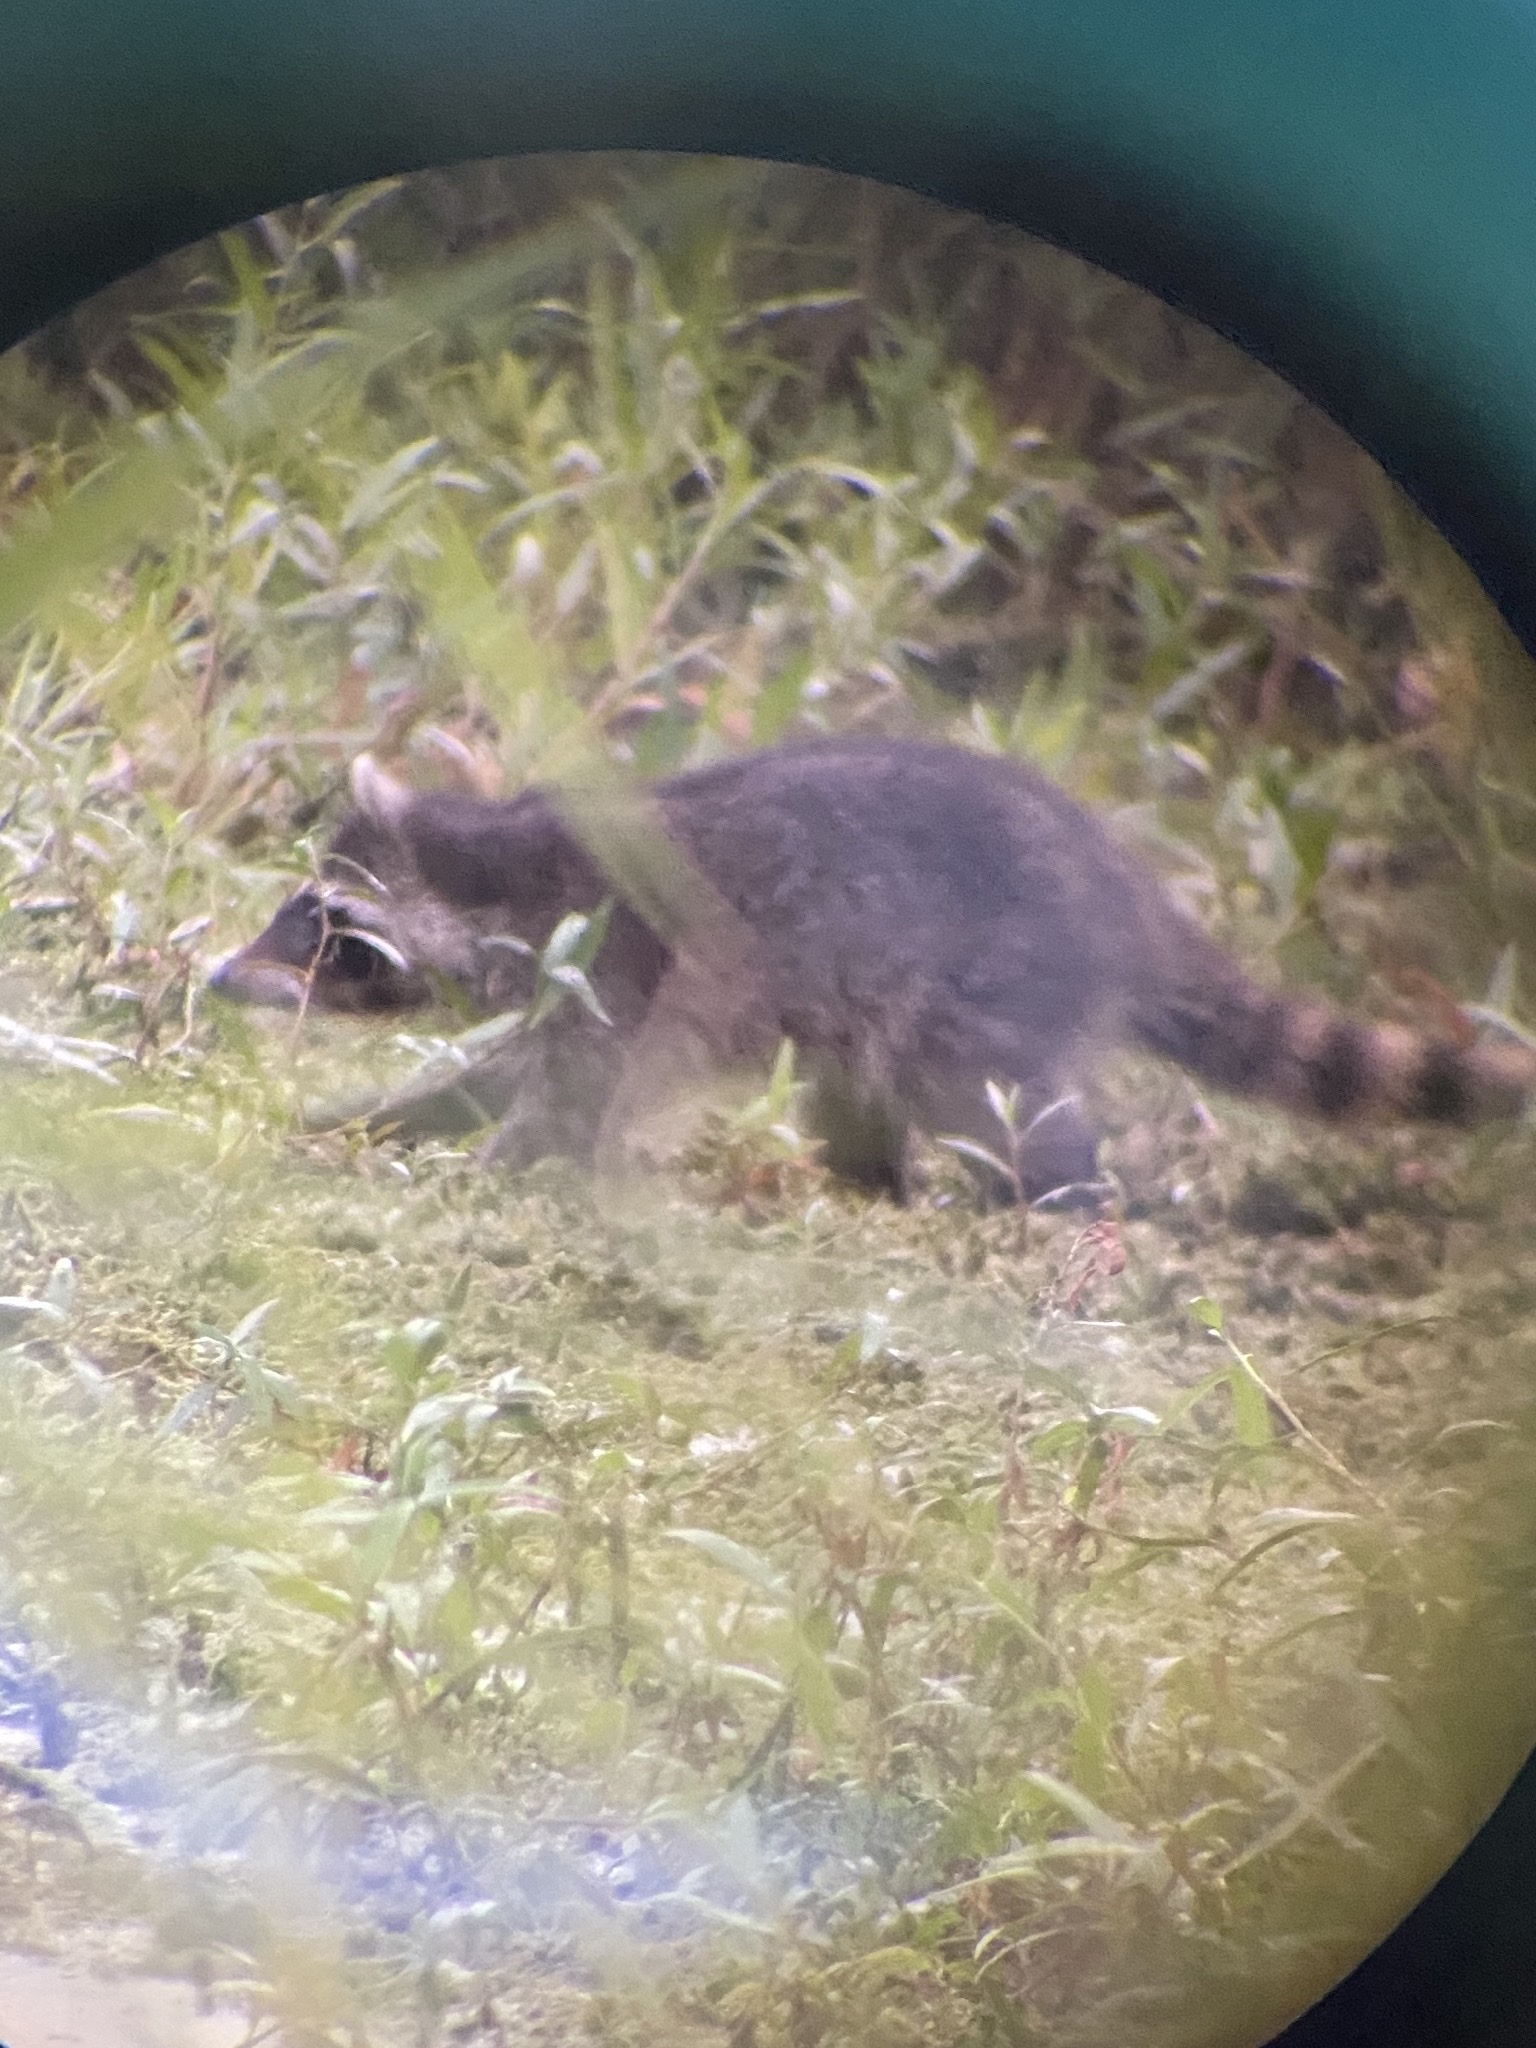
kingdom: Animalia
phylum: Chordata
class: Mammalia
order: Carnivora
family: Procyonidae
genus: Procyon
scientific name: Procyon lotor
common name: Raccoon
